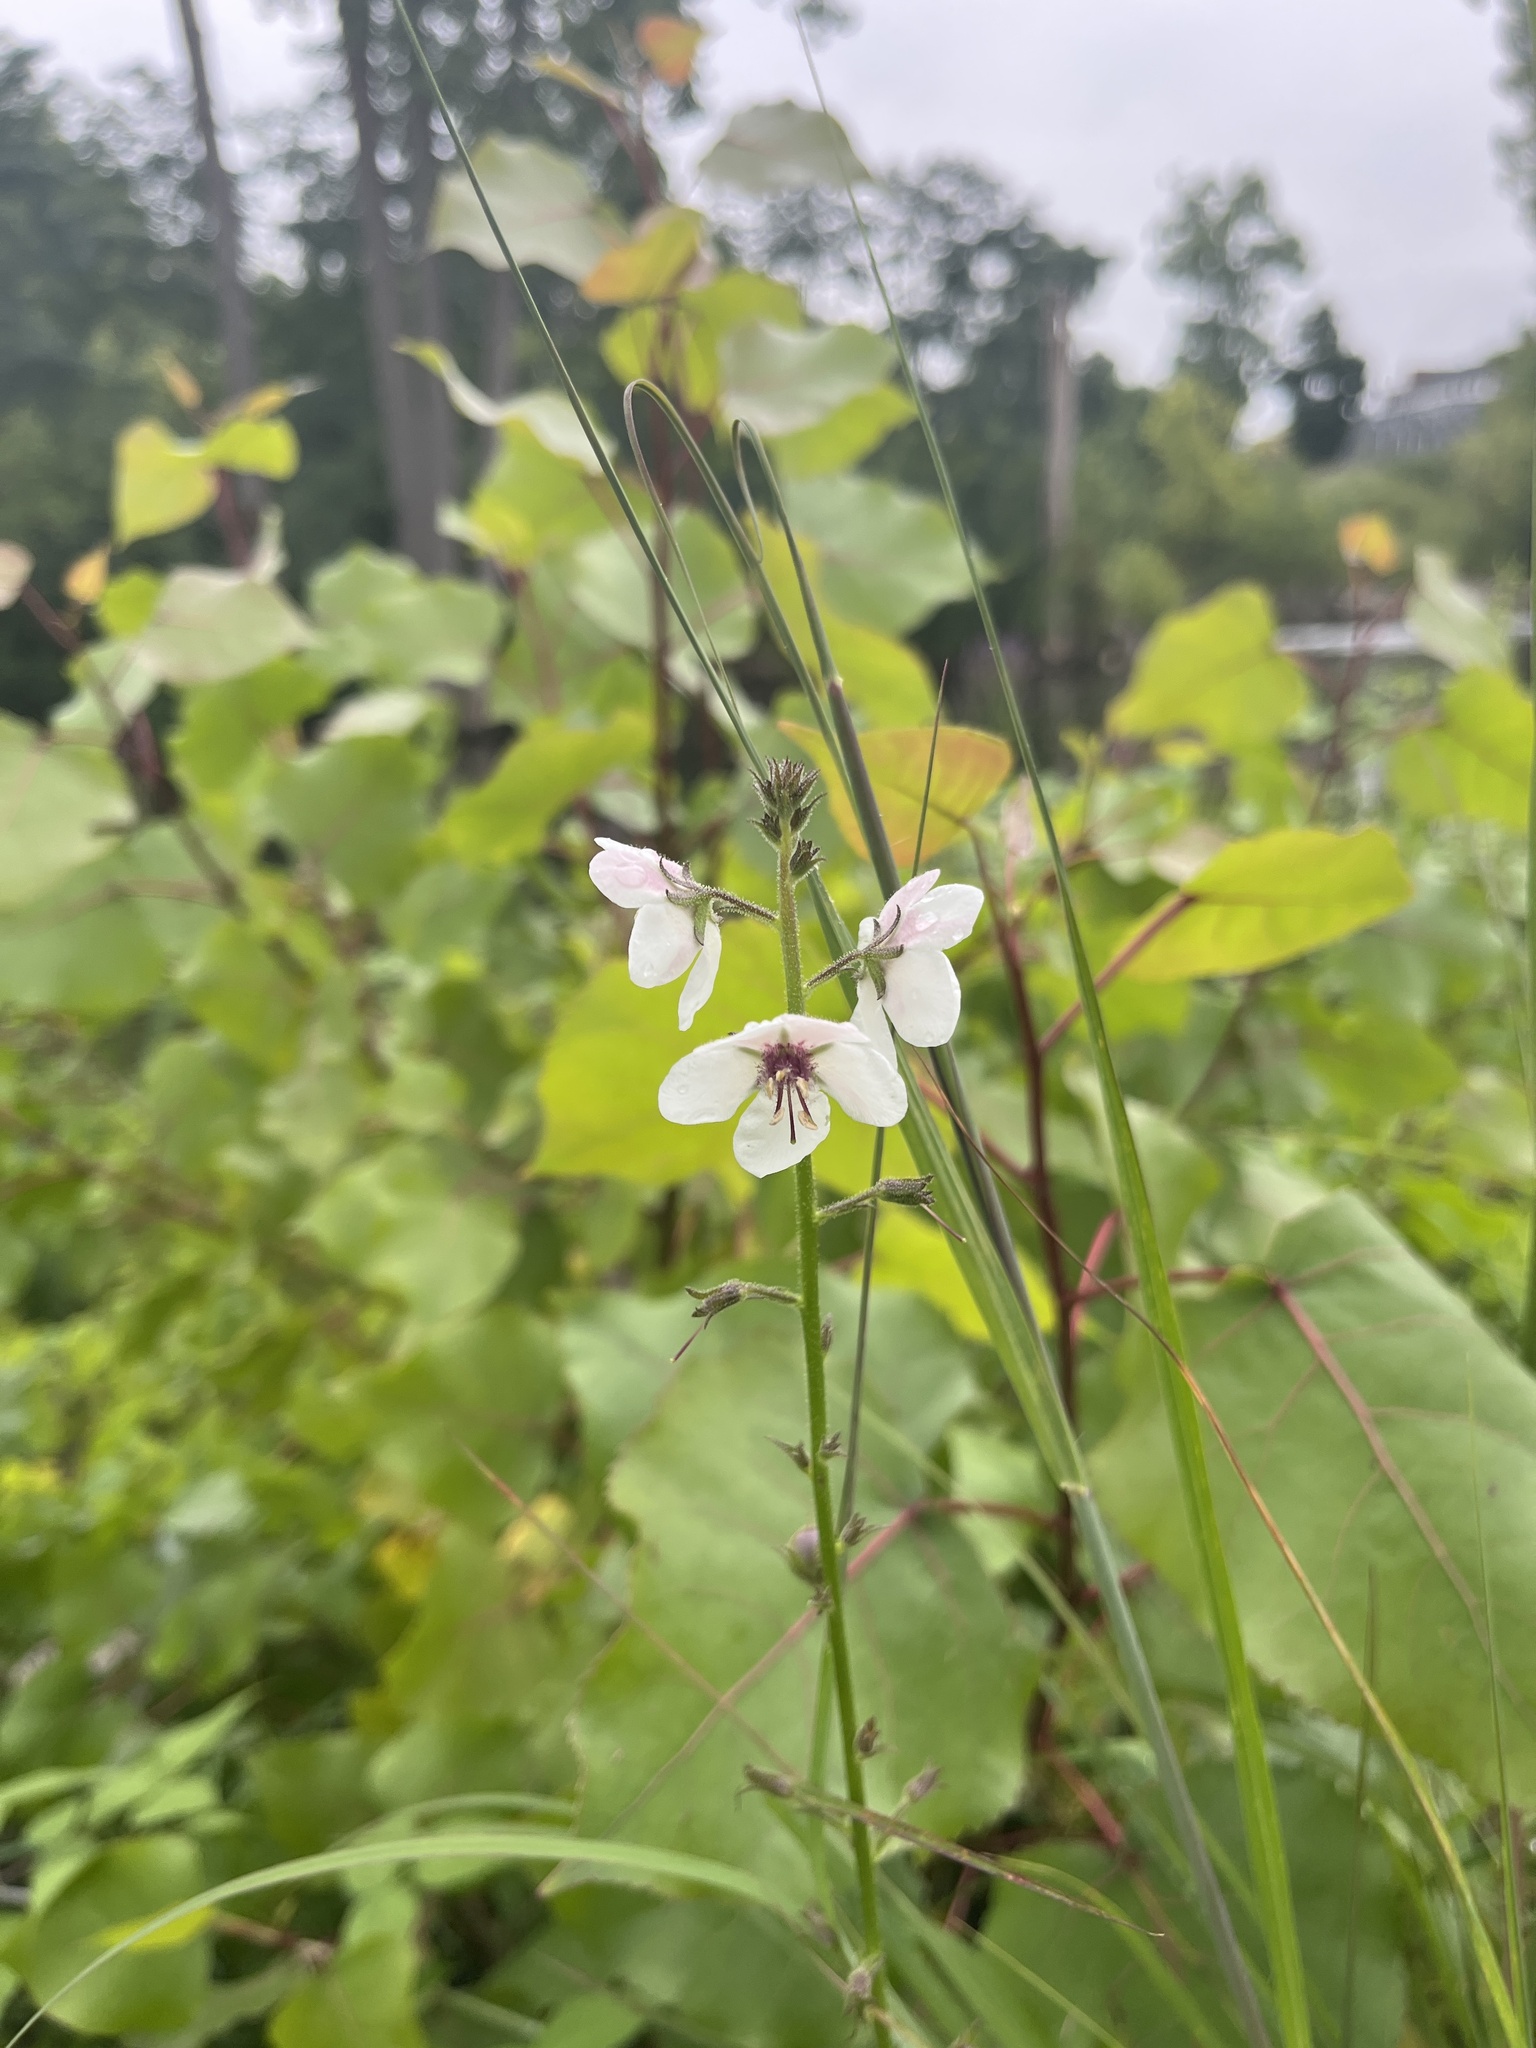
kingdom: Plantae
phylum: Tracheophyta
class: Magnoliopsida
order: Lamiales
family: Scrophulariaceae
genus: Verbascum
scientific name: Verbascum blattaria
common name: Moth mullein
